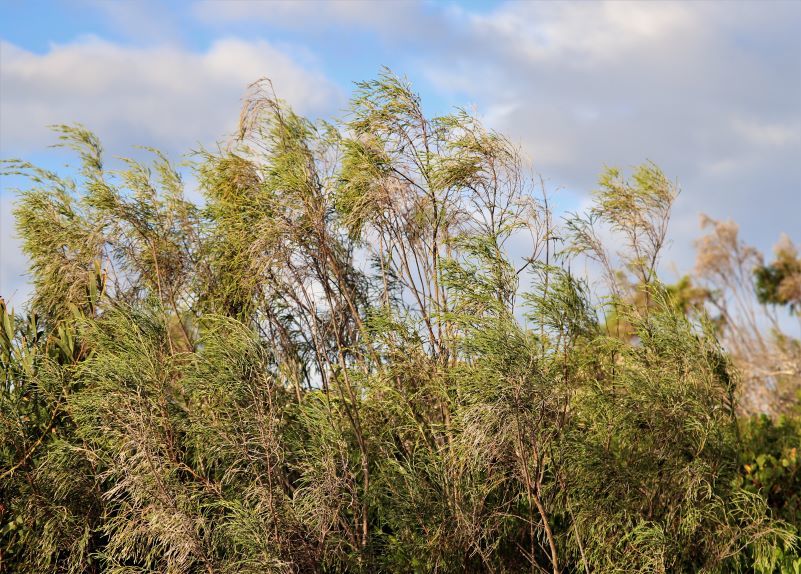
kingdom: Plantae
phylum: Tracheophyta
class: Magnoliopsida
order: Malvales
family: Thymelaeaceae
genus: Passerina
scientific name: Passerina rigida
